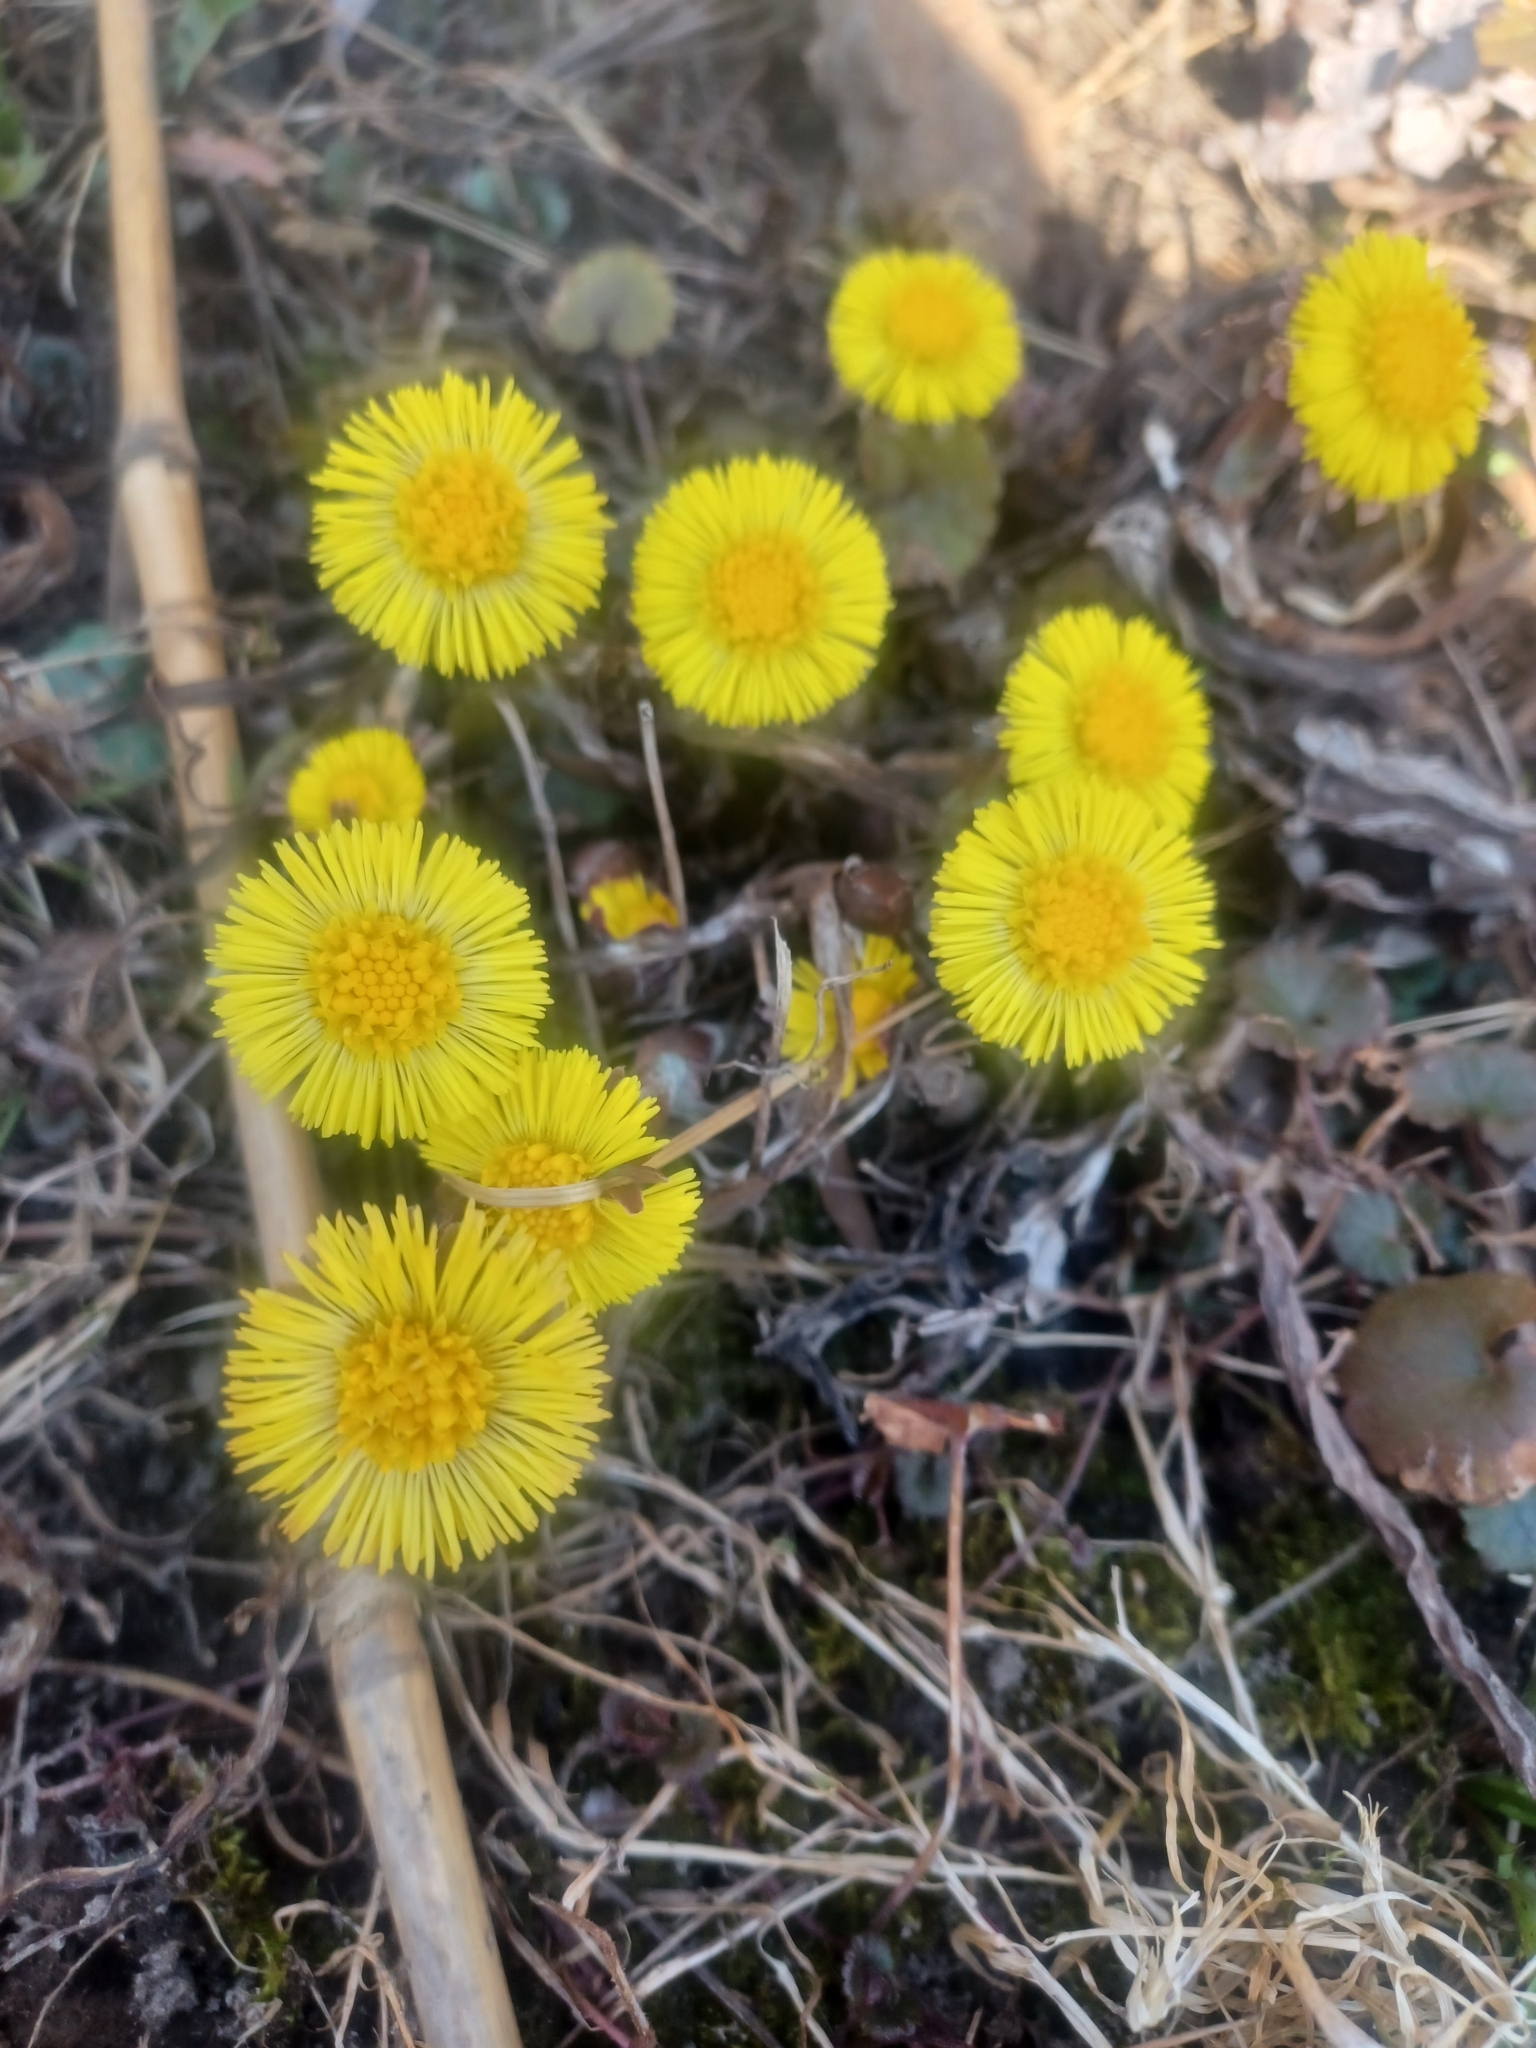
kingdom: Plantae
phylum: Tracheophyta
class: Magnoliopsida
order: Asterales
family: Asteraceae
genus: Tussilago
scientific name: Tussilago farfara
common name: Coltsfoot
